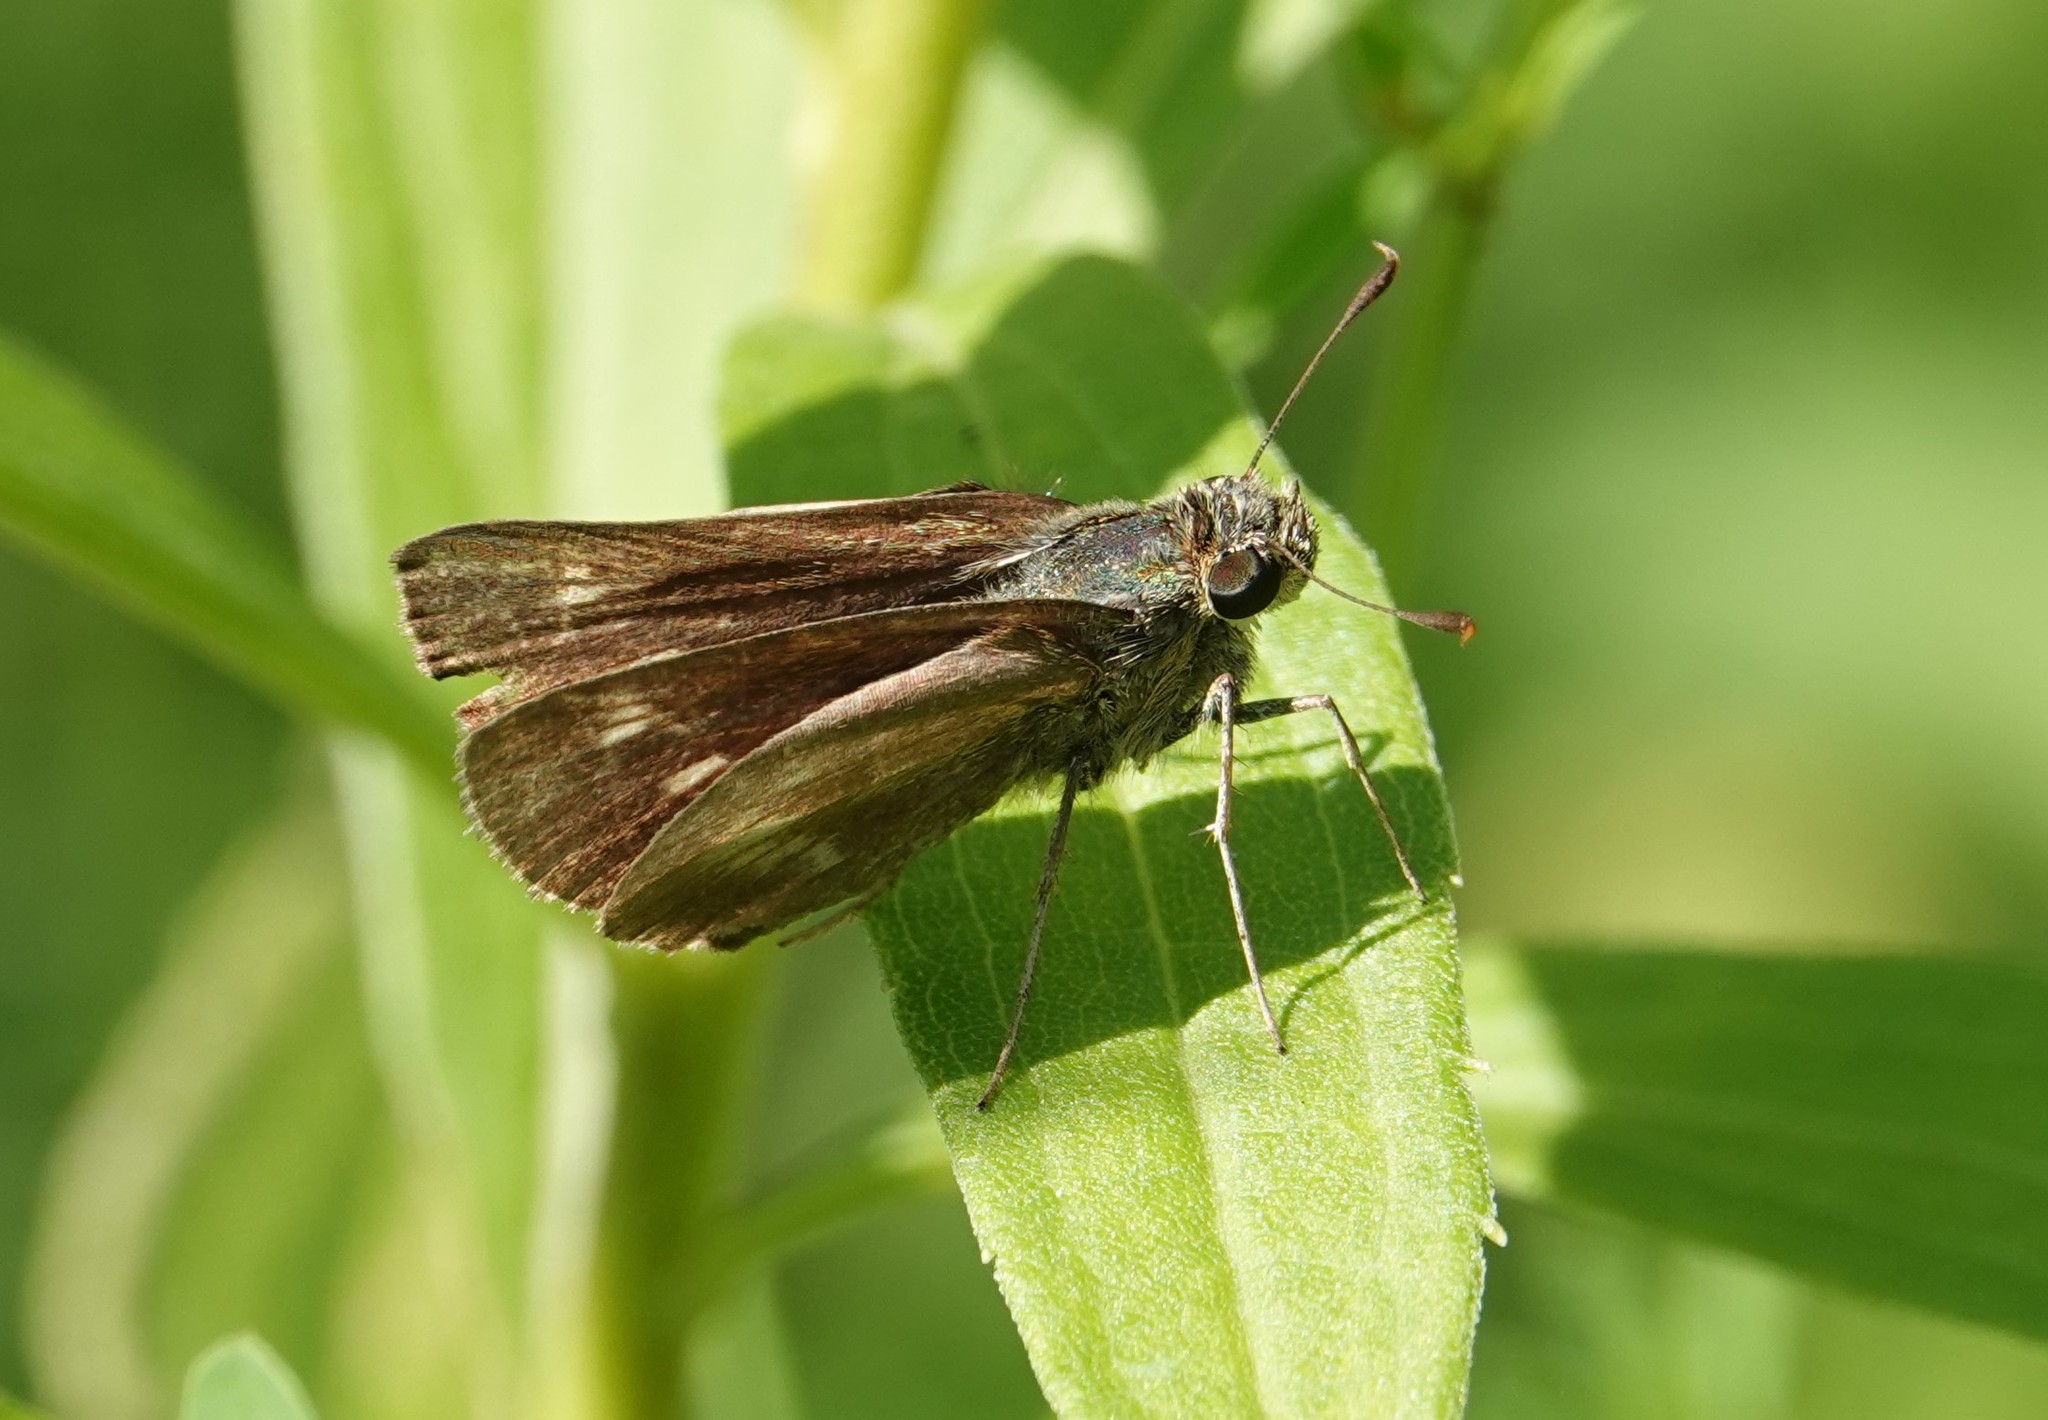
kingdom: Animalia
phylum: Arthropoda
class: Insecta
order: Lepidoptera
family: Hesperiidae
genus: Polites
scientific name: Polites egeremet
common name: Northern broken-dash
